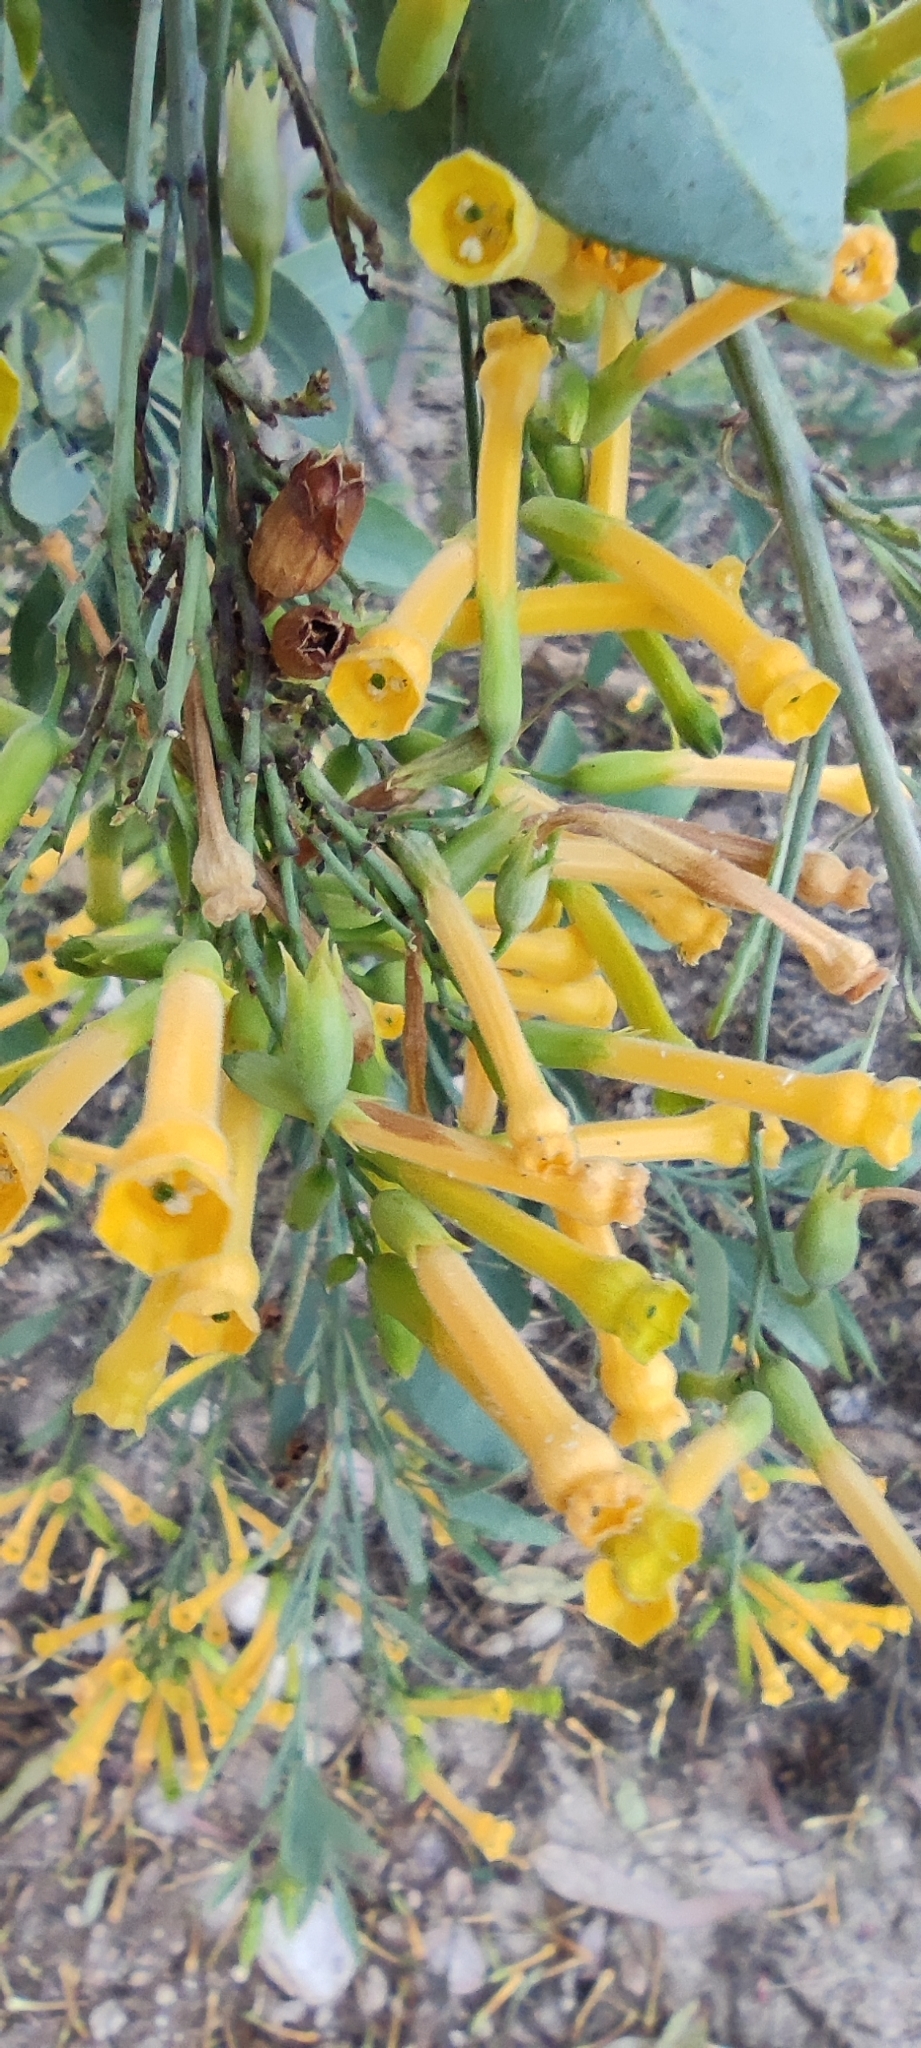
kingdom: Plantae
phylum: Tracheophyta
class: Magnoliopsida
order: Solanales
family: Solanaceae
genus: Nicotiana
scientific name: Nicotiana glauca
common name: Tree tobacco
